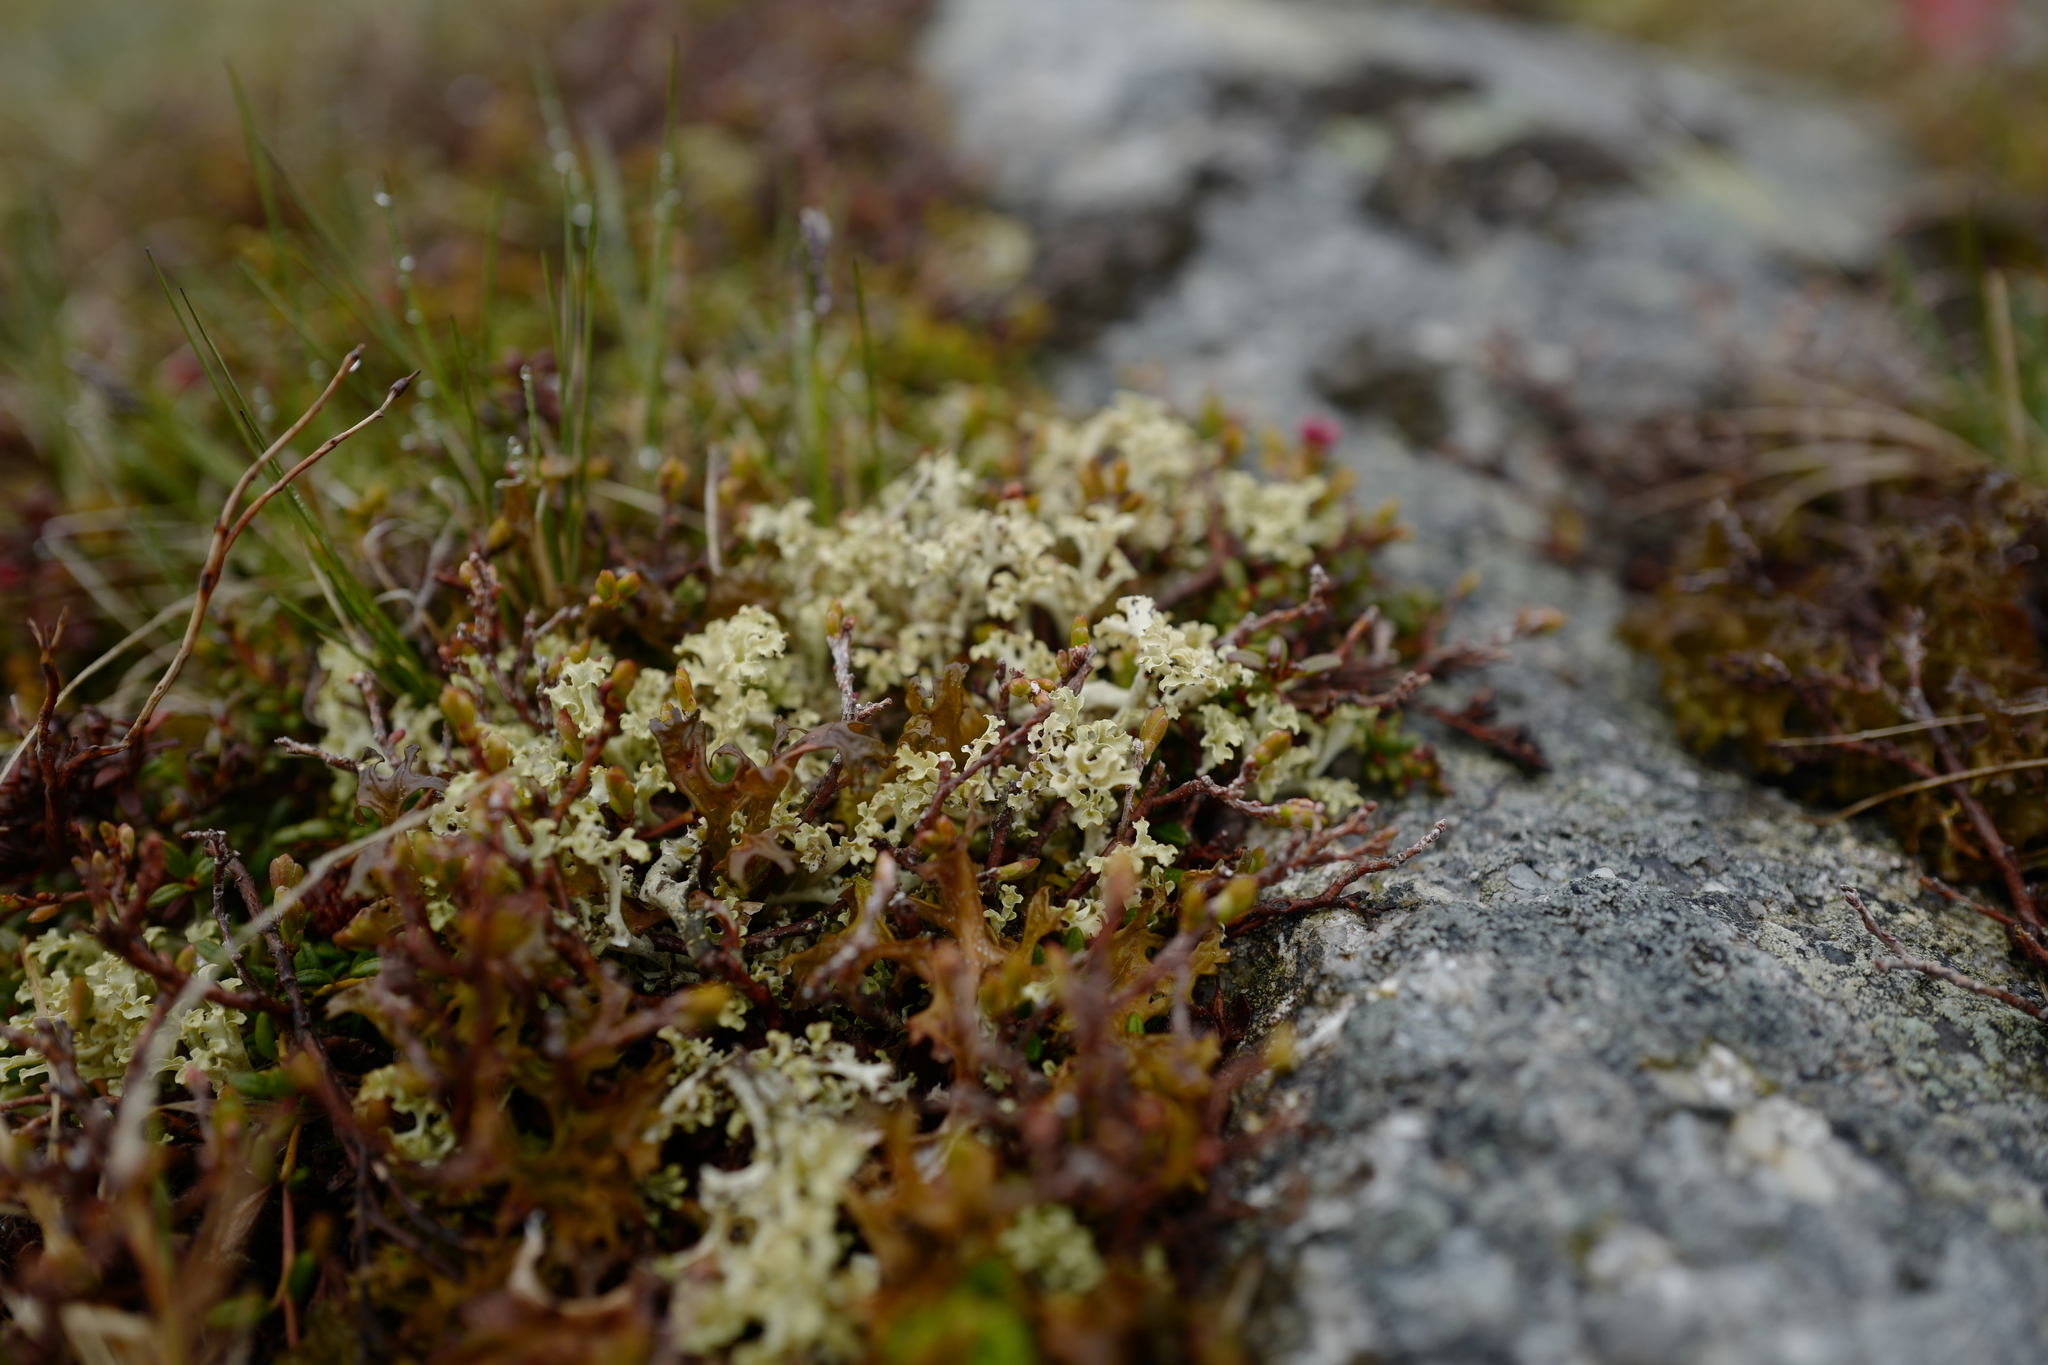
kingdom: Fungi
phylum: Ascomycota
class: Lecanoromycetes
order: Lecanorales
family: Parmeliaceae
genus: Nephromopsis
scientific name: Nephromopsis cucullata
